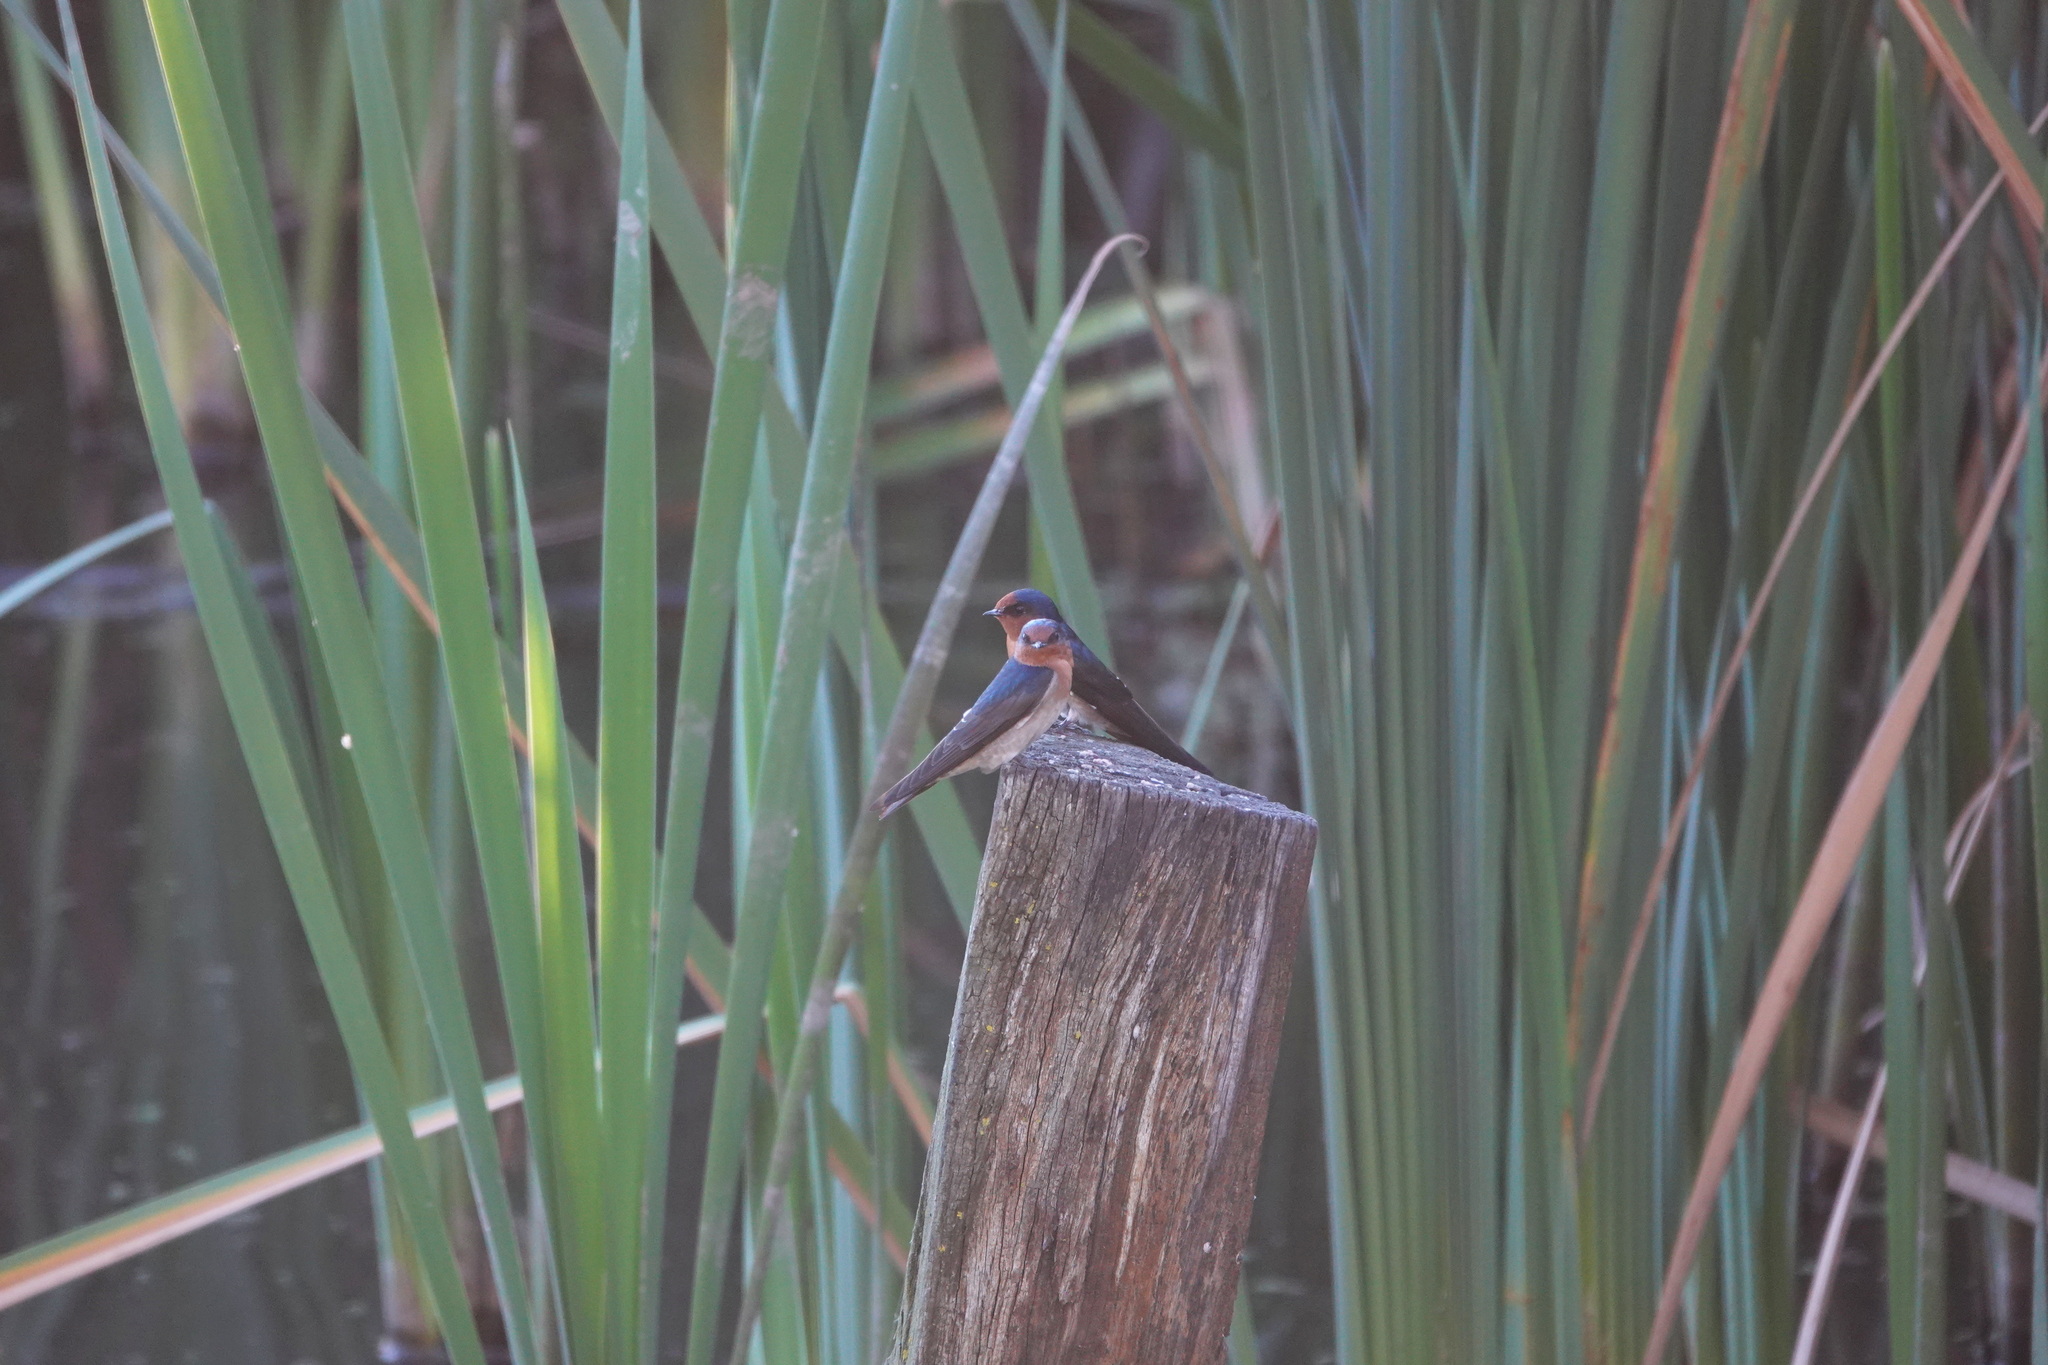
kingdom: Animalia
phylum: Chordata
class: Aves
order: Passeriformes
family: Hirundinidae
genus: Hirundo
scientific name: Hirundo neoxena
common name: Welcome swallow
